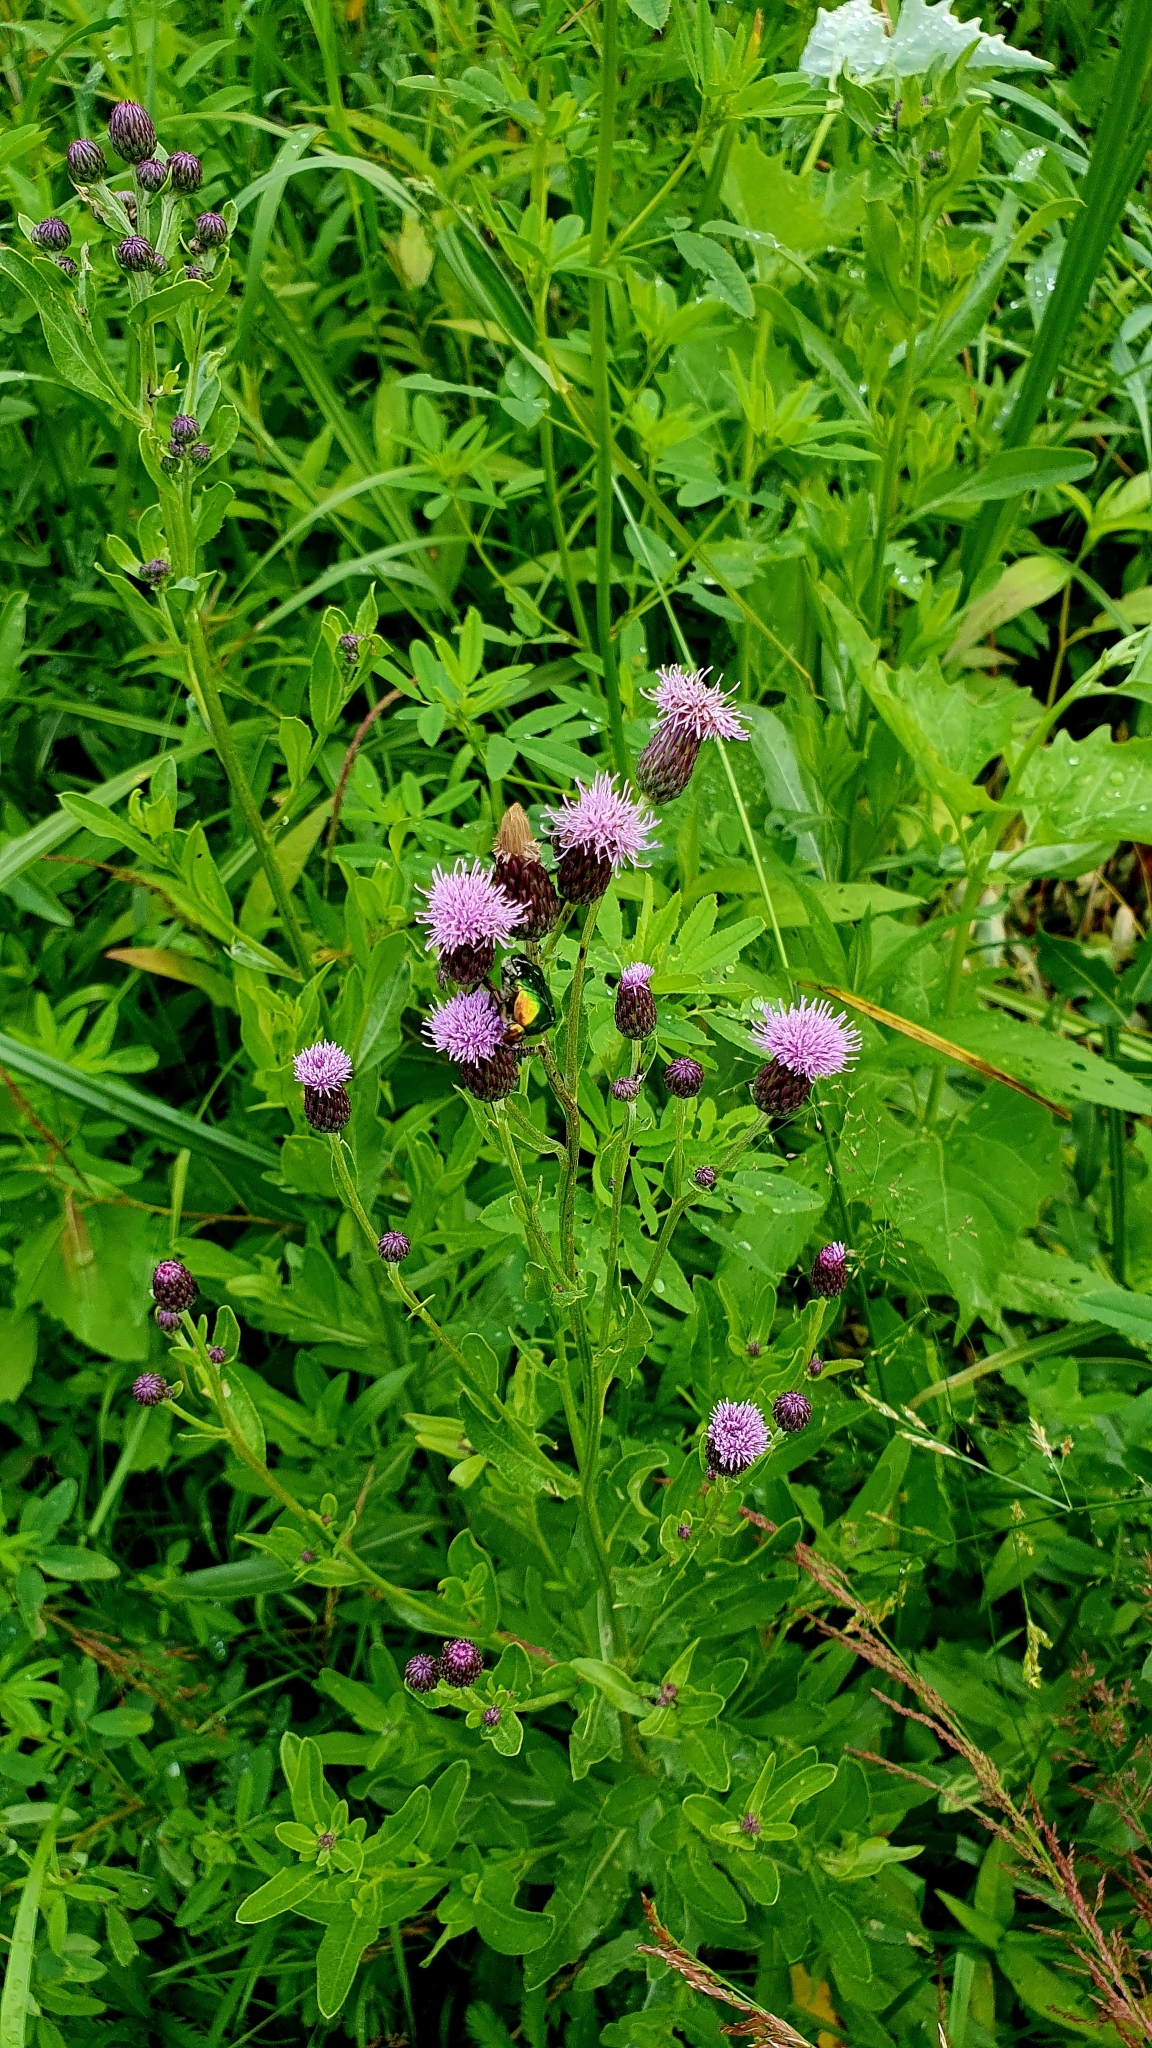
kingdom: Plantae
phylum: Tracheophyta
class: Magnoliopsida
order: Asterales
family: Asteraceae
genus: Cirsium
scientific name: Cirsium arvense
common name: Creeping thistle
